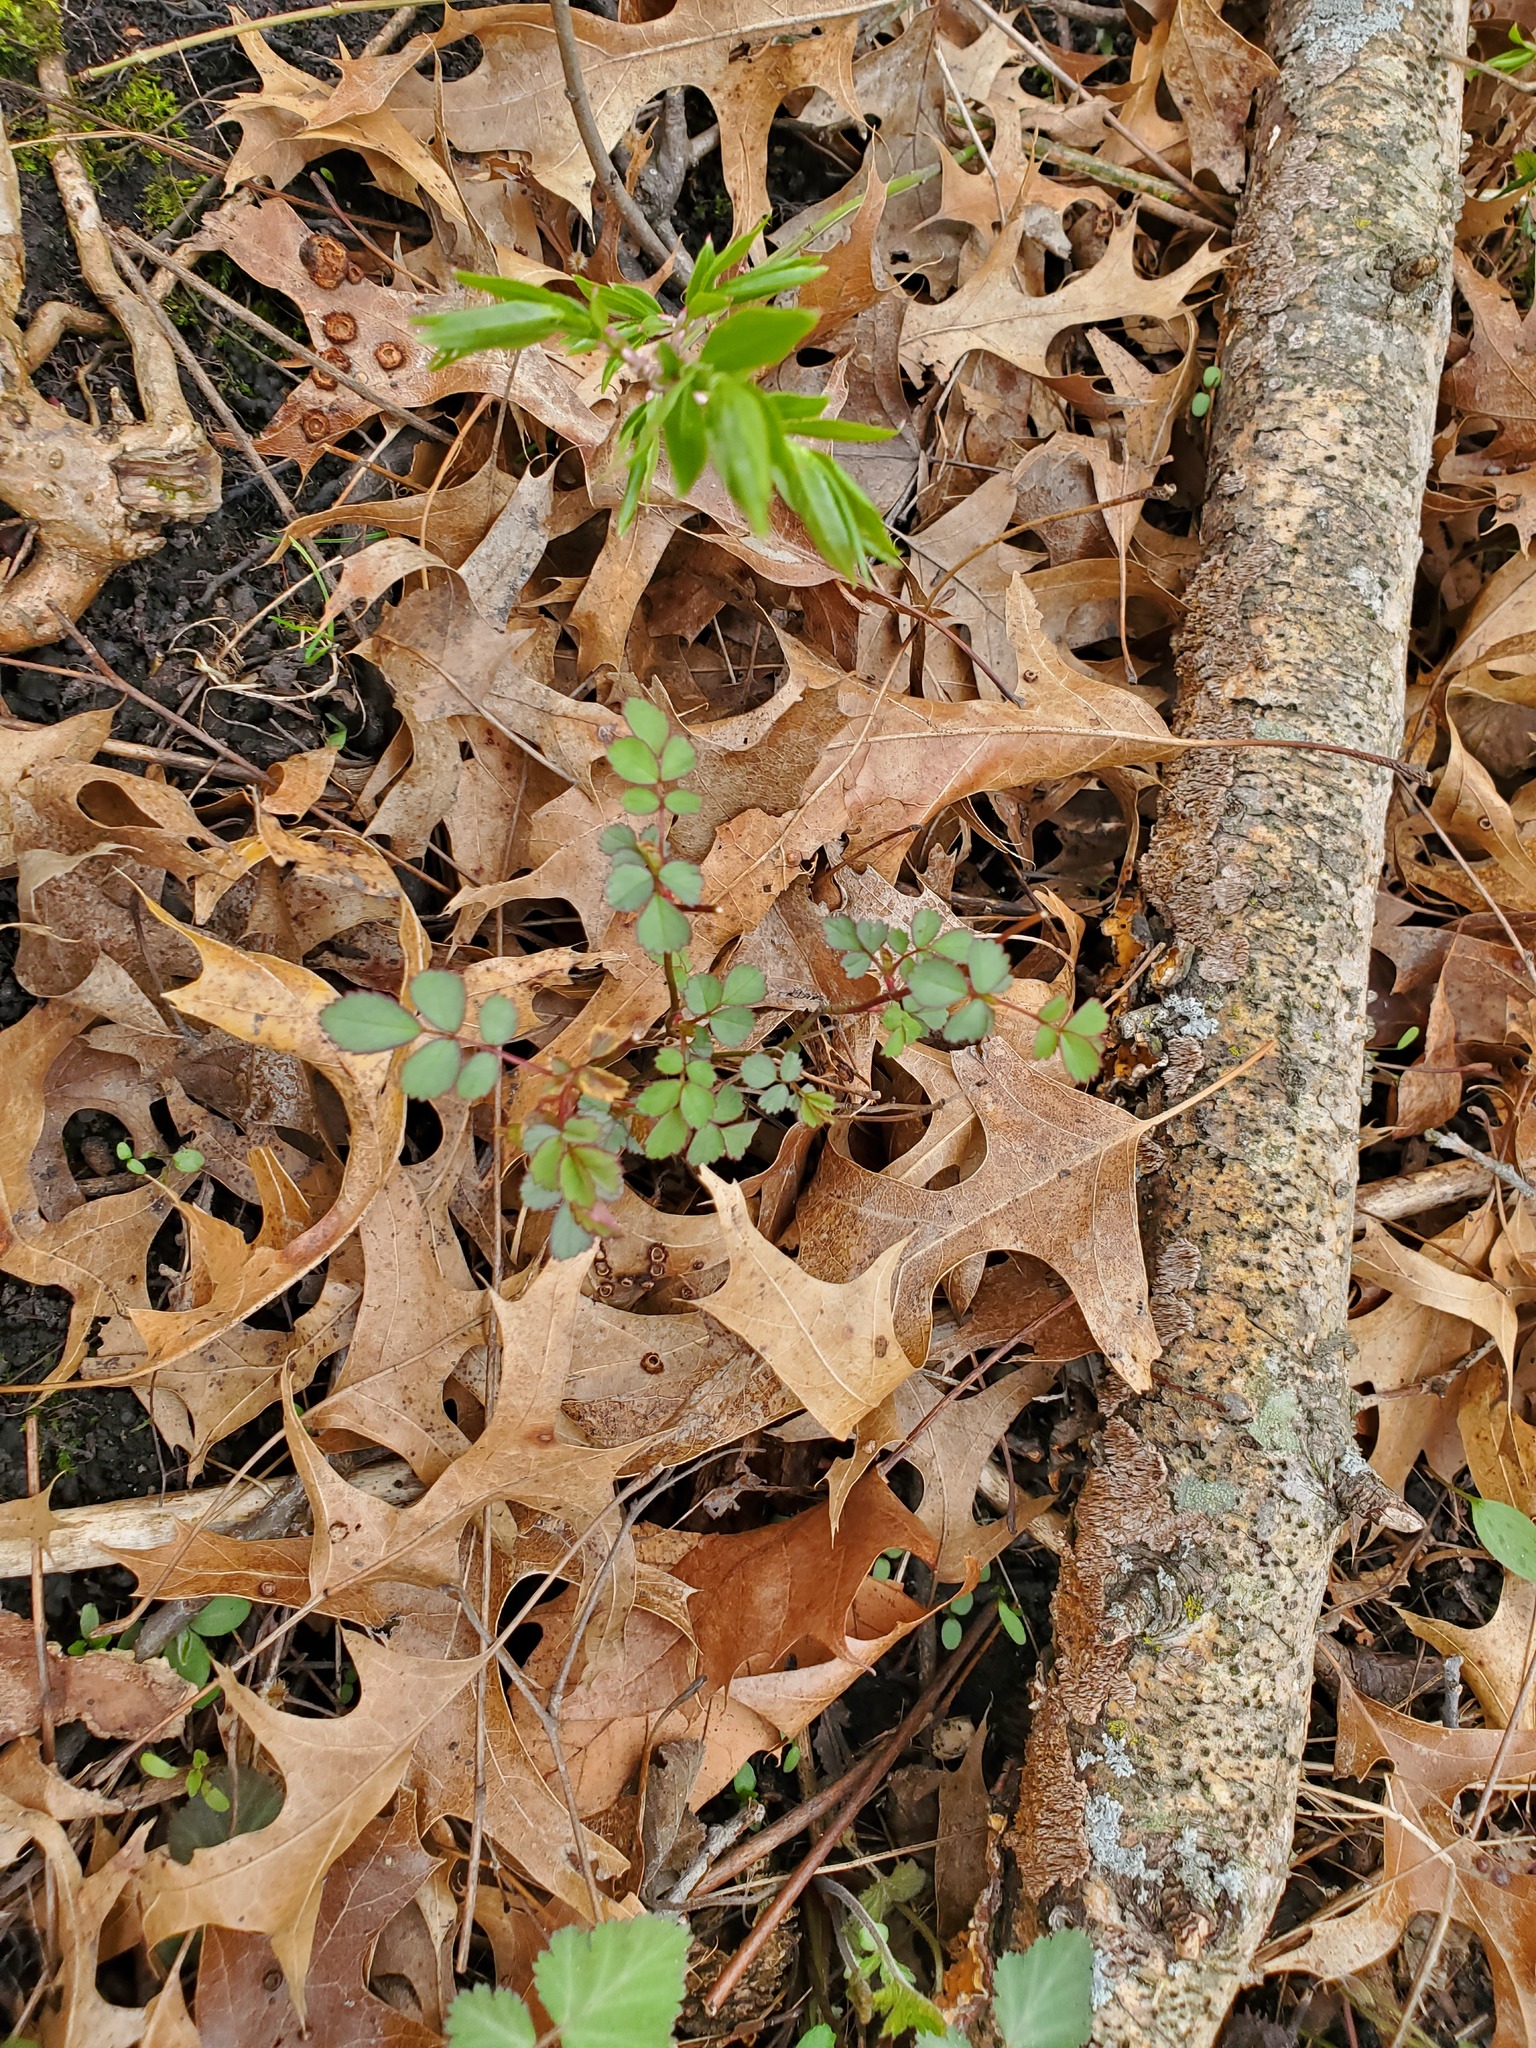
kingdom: Plantae
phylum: Tracheophyta
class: Magnoliopsida
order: Rosales
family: Rosaceae
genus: Rosa
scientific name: Rosa multiflora
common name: Multiflora rose
